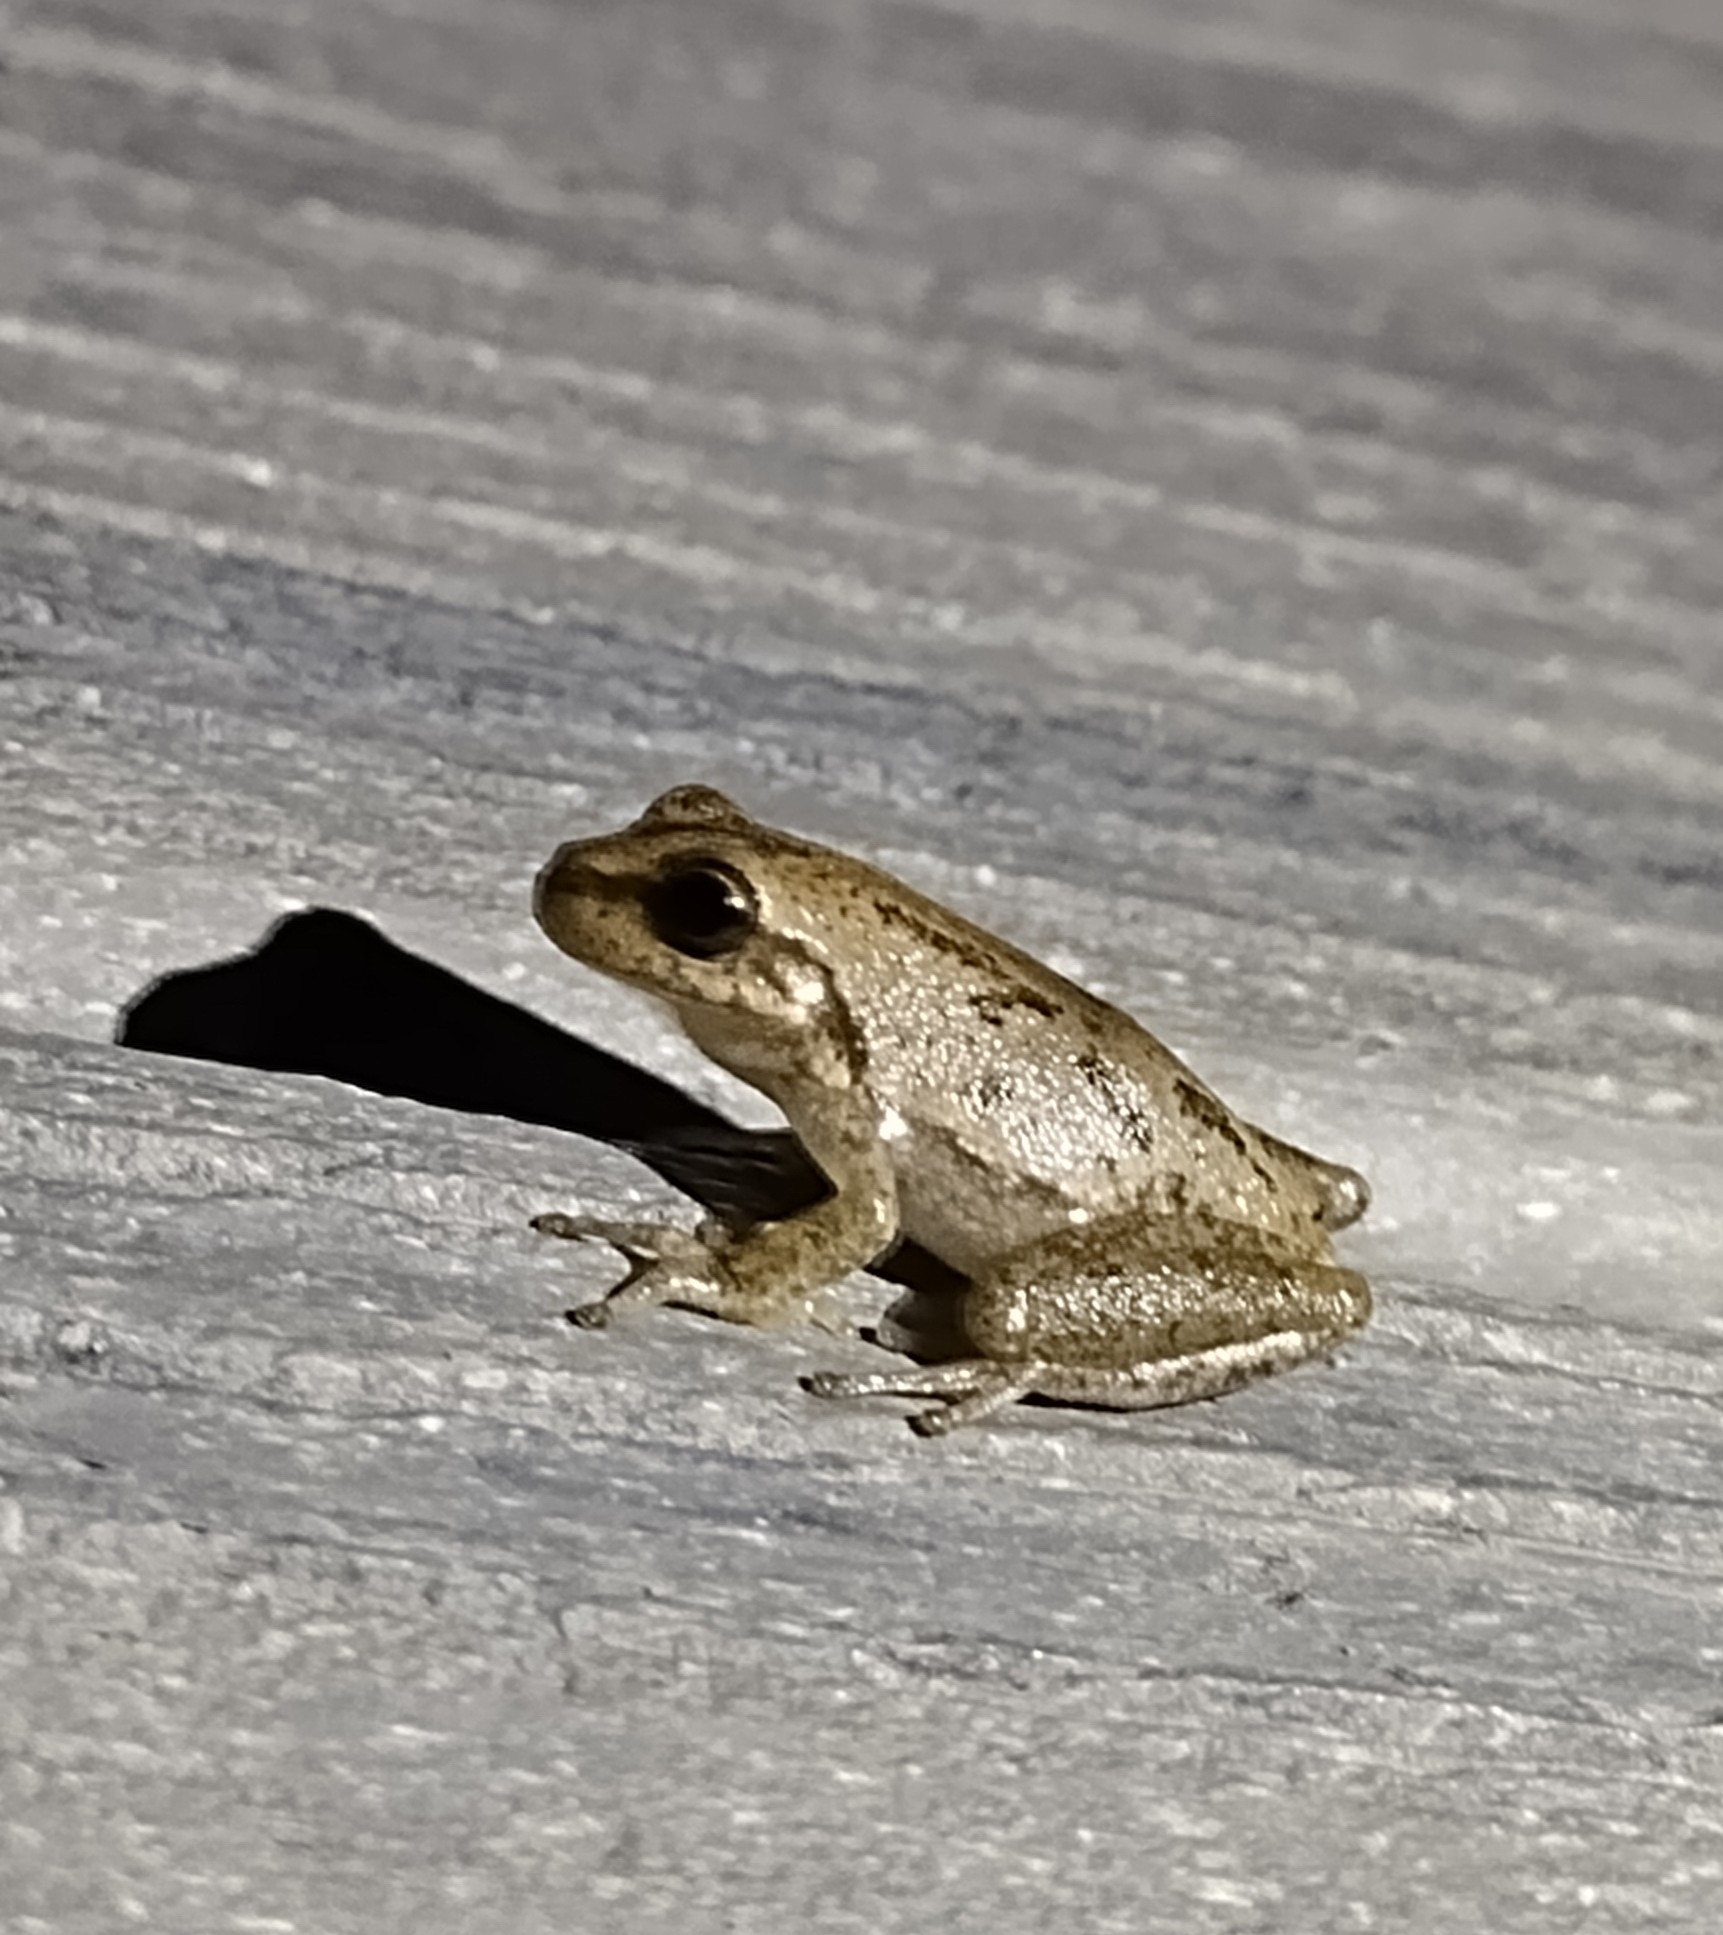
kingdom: Animalia
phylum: Chordata
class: Amphibia
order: Anura
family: Hylidae
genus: Dryophytes
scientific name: Dryophytes squirellus
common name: Squirrel treefrog
